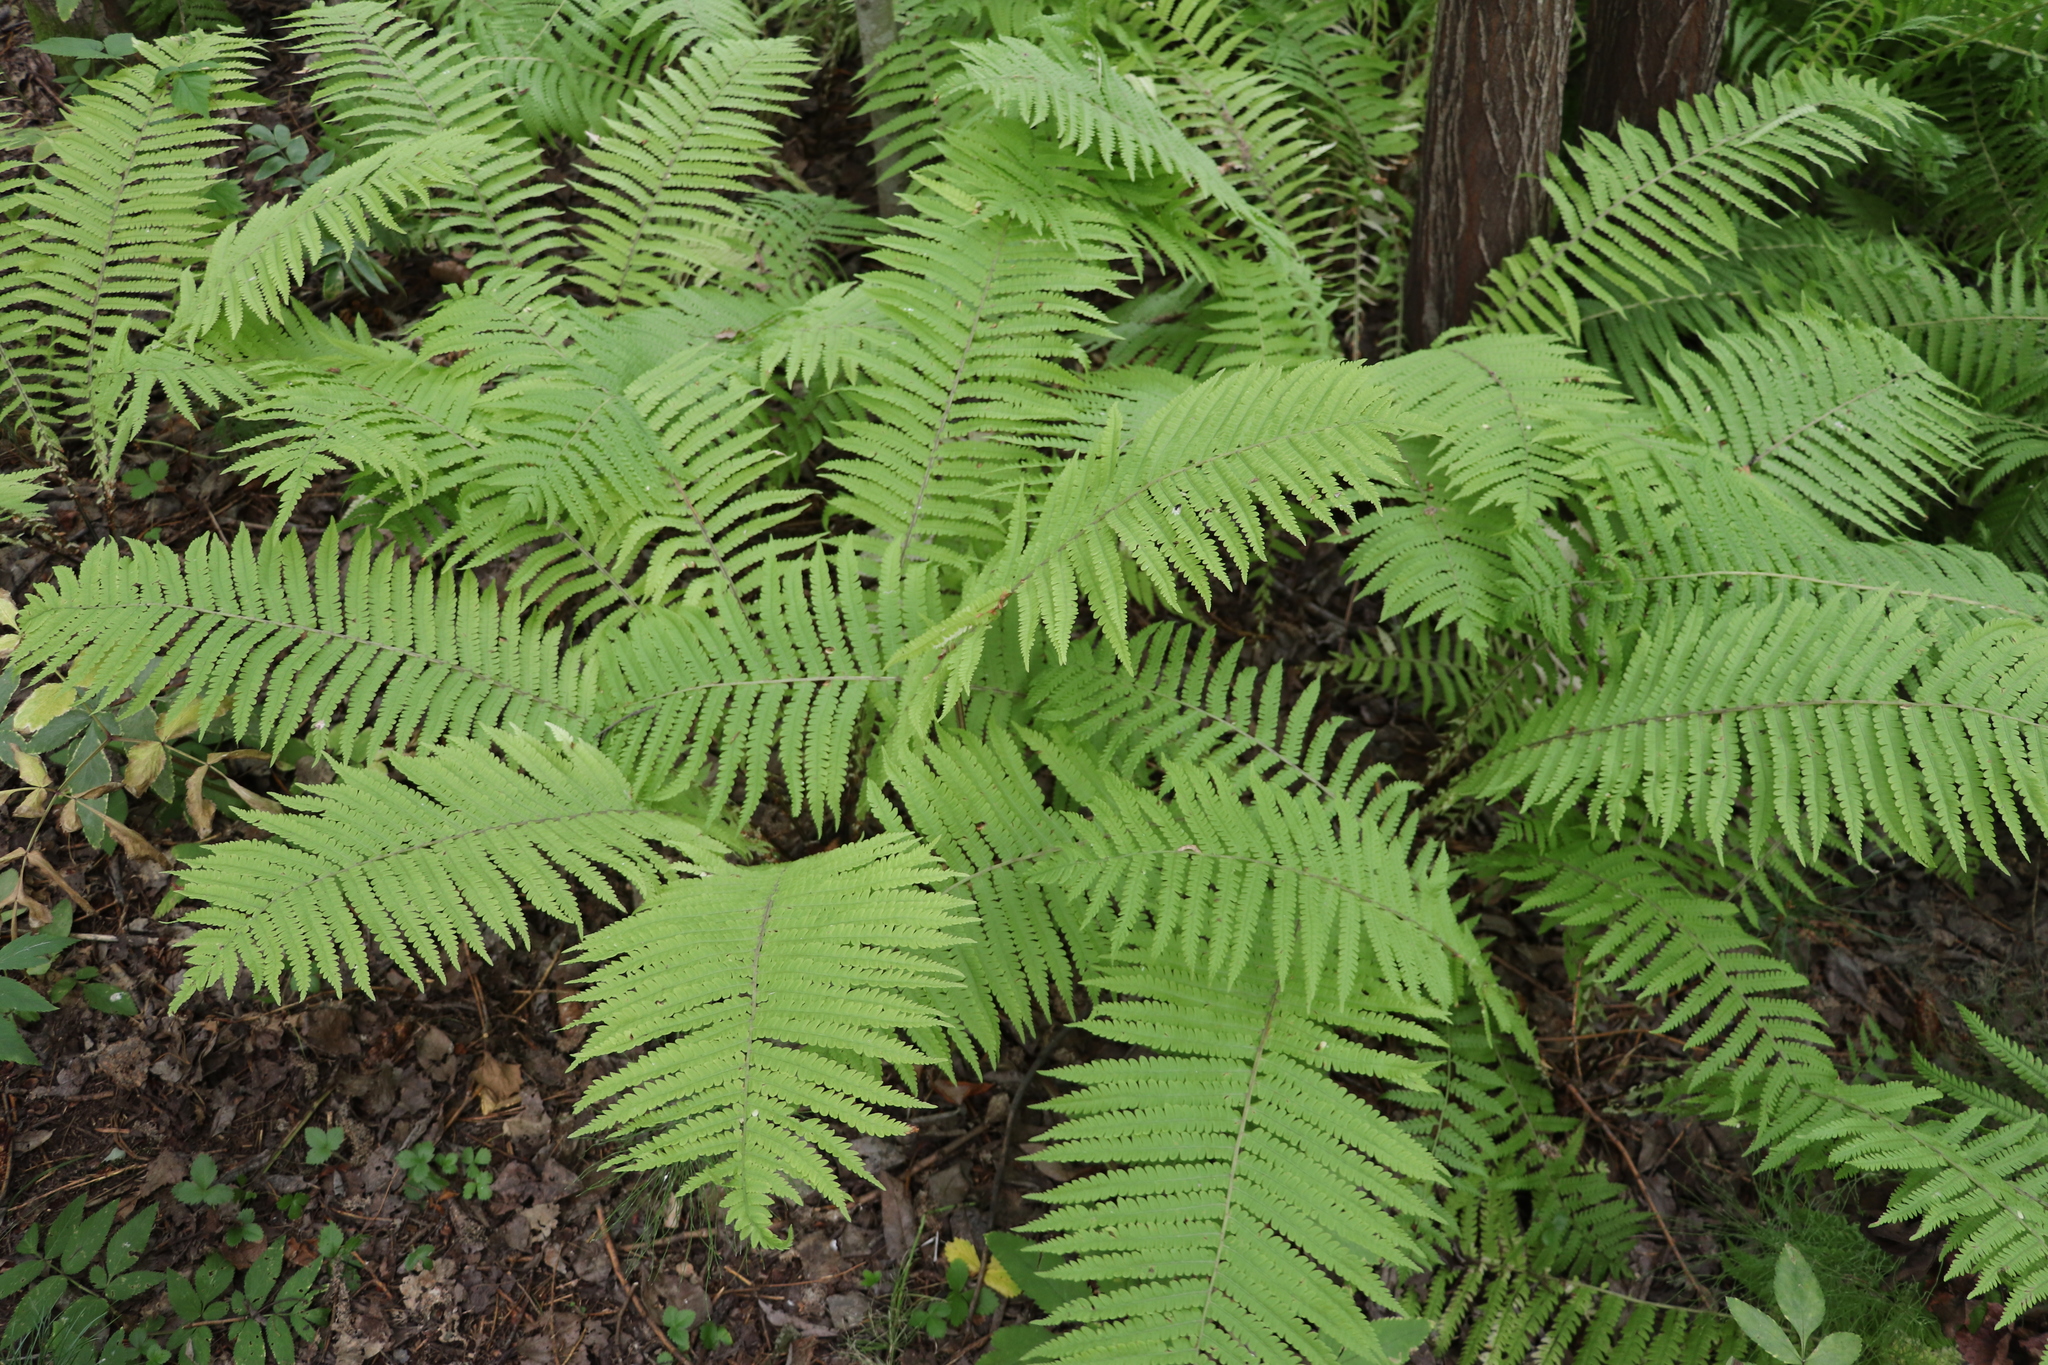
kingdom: Plantae
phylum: Tracheophyta
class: Polypodiopsida
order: Polypodiales
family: Onocleaceae
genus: Matteuccia
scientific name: Matteuccia struthiopteris
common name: Ostrich fern
